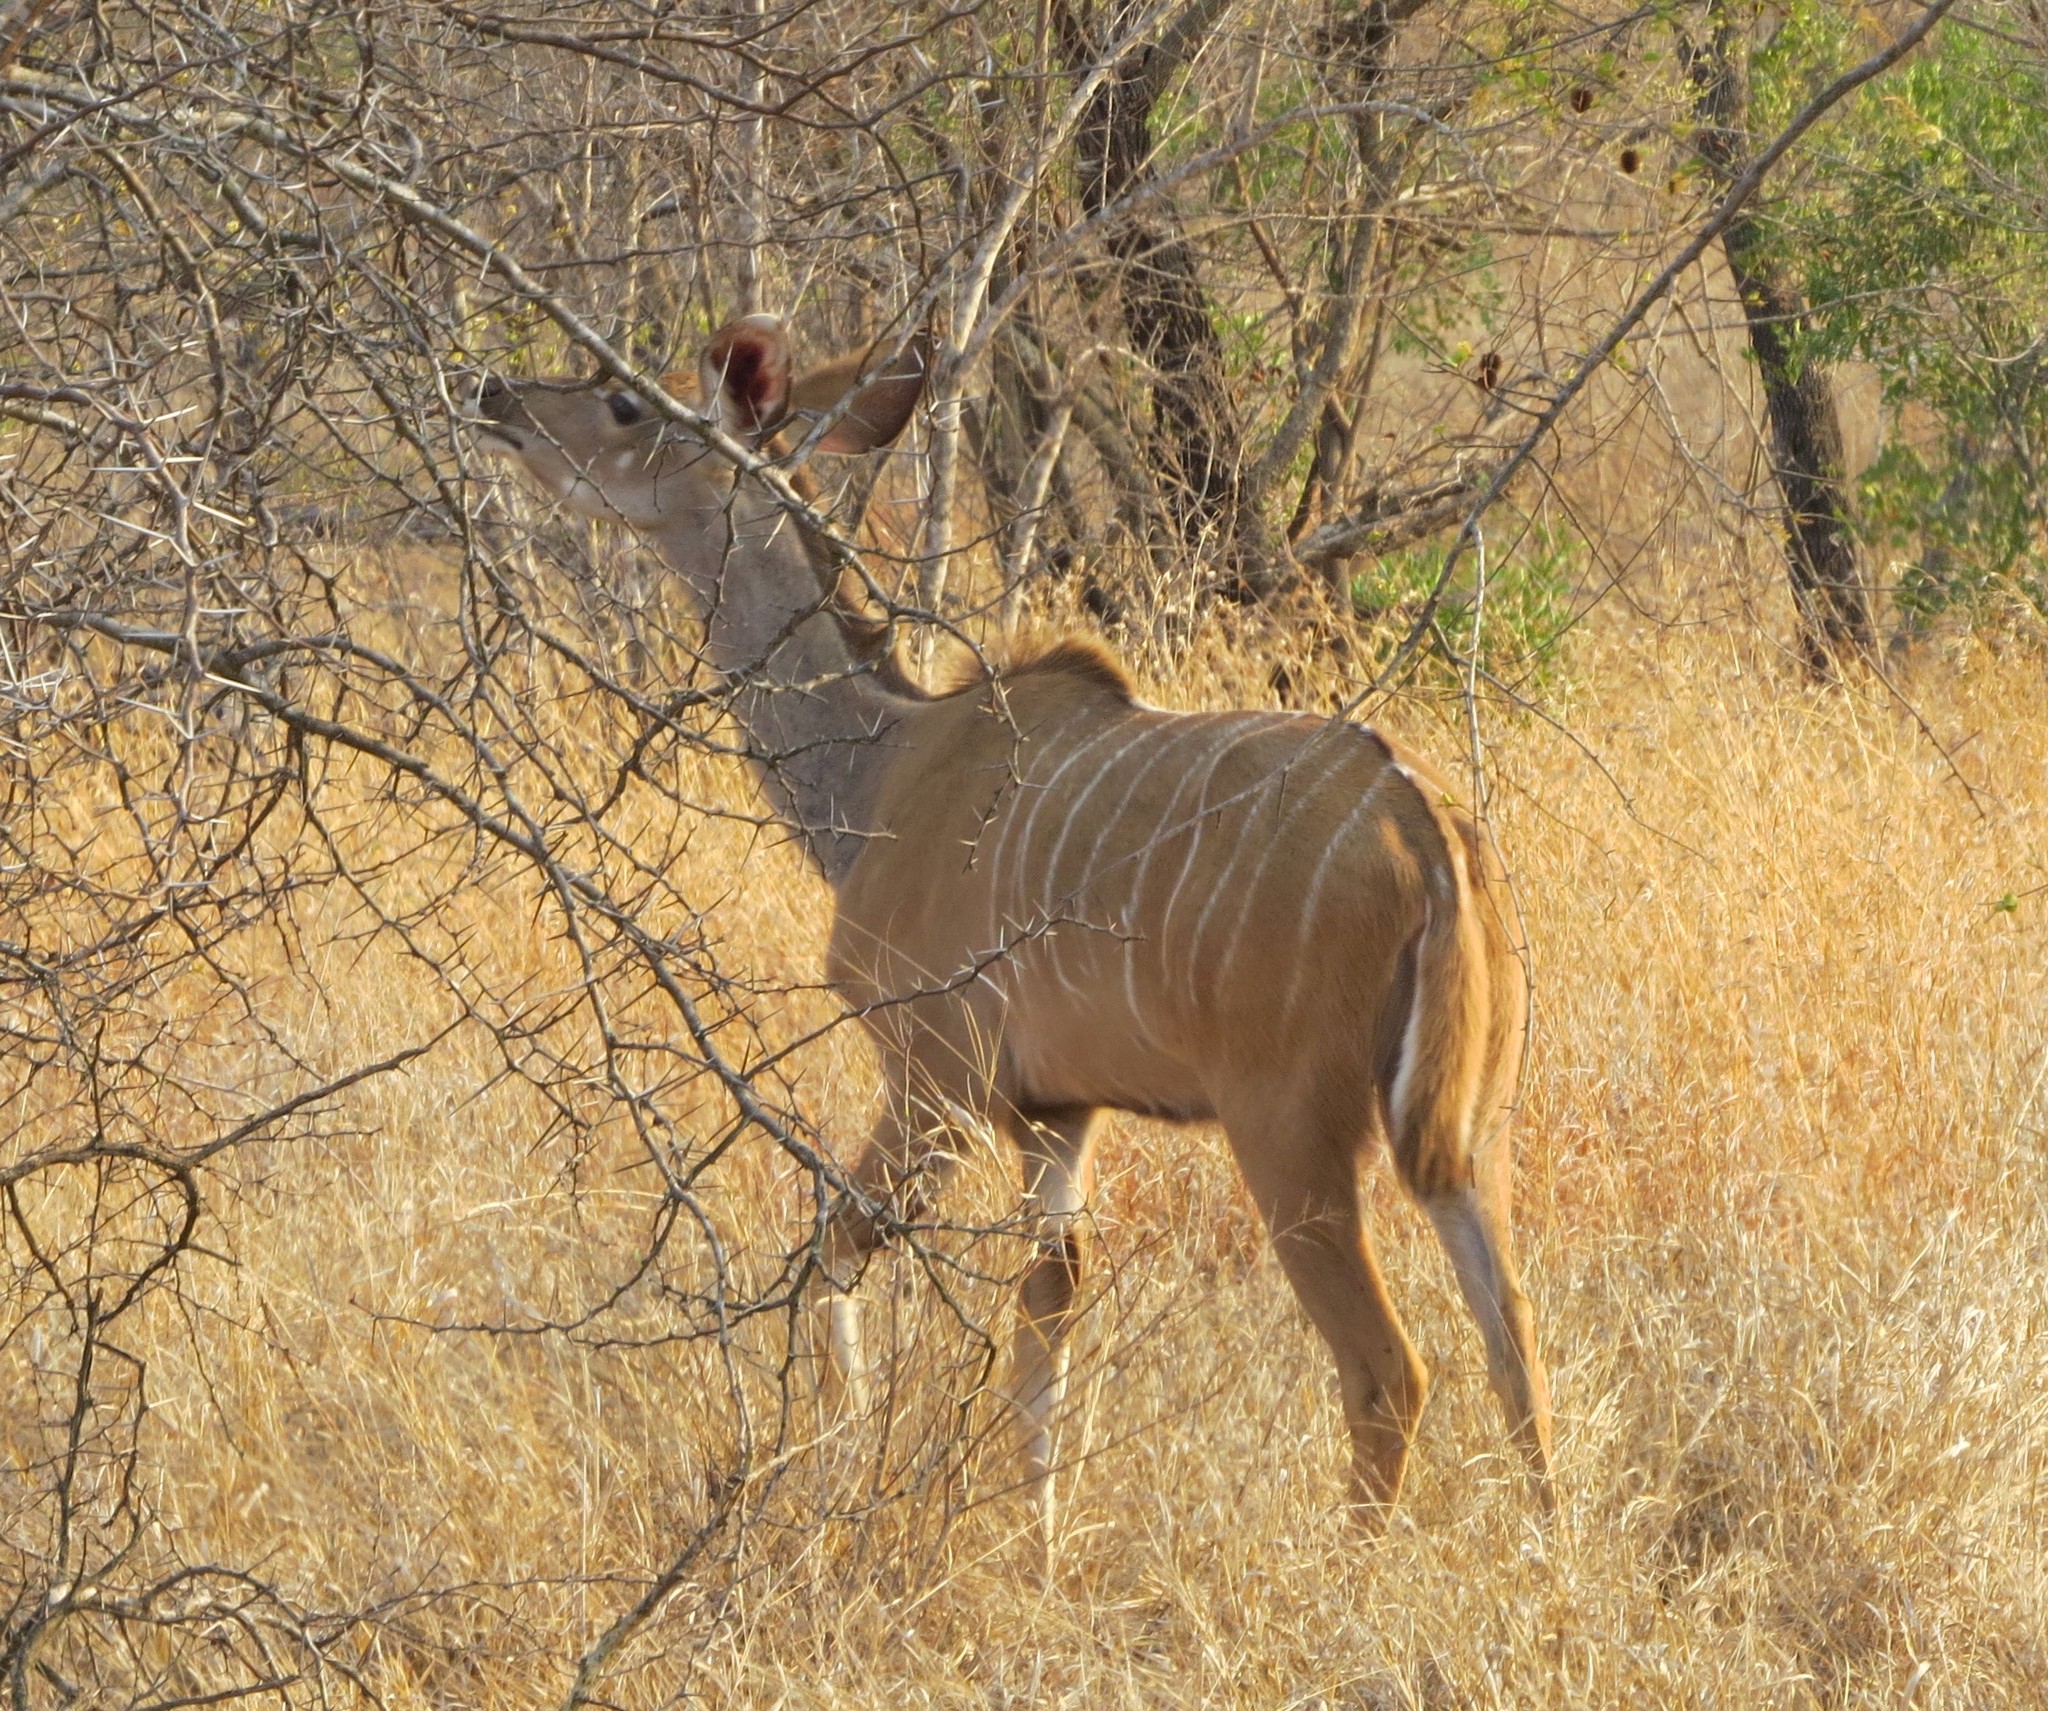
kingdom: Animalia
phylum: Chordata
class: Mammalia
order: Artiodactyla
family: Bovidae
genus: Tragelaphus
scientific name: Tragelaphus strepsiceros
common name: Greater kudu
